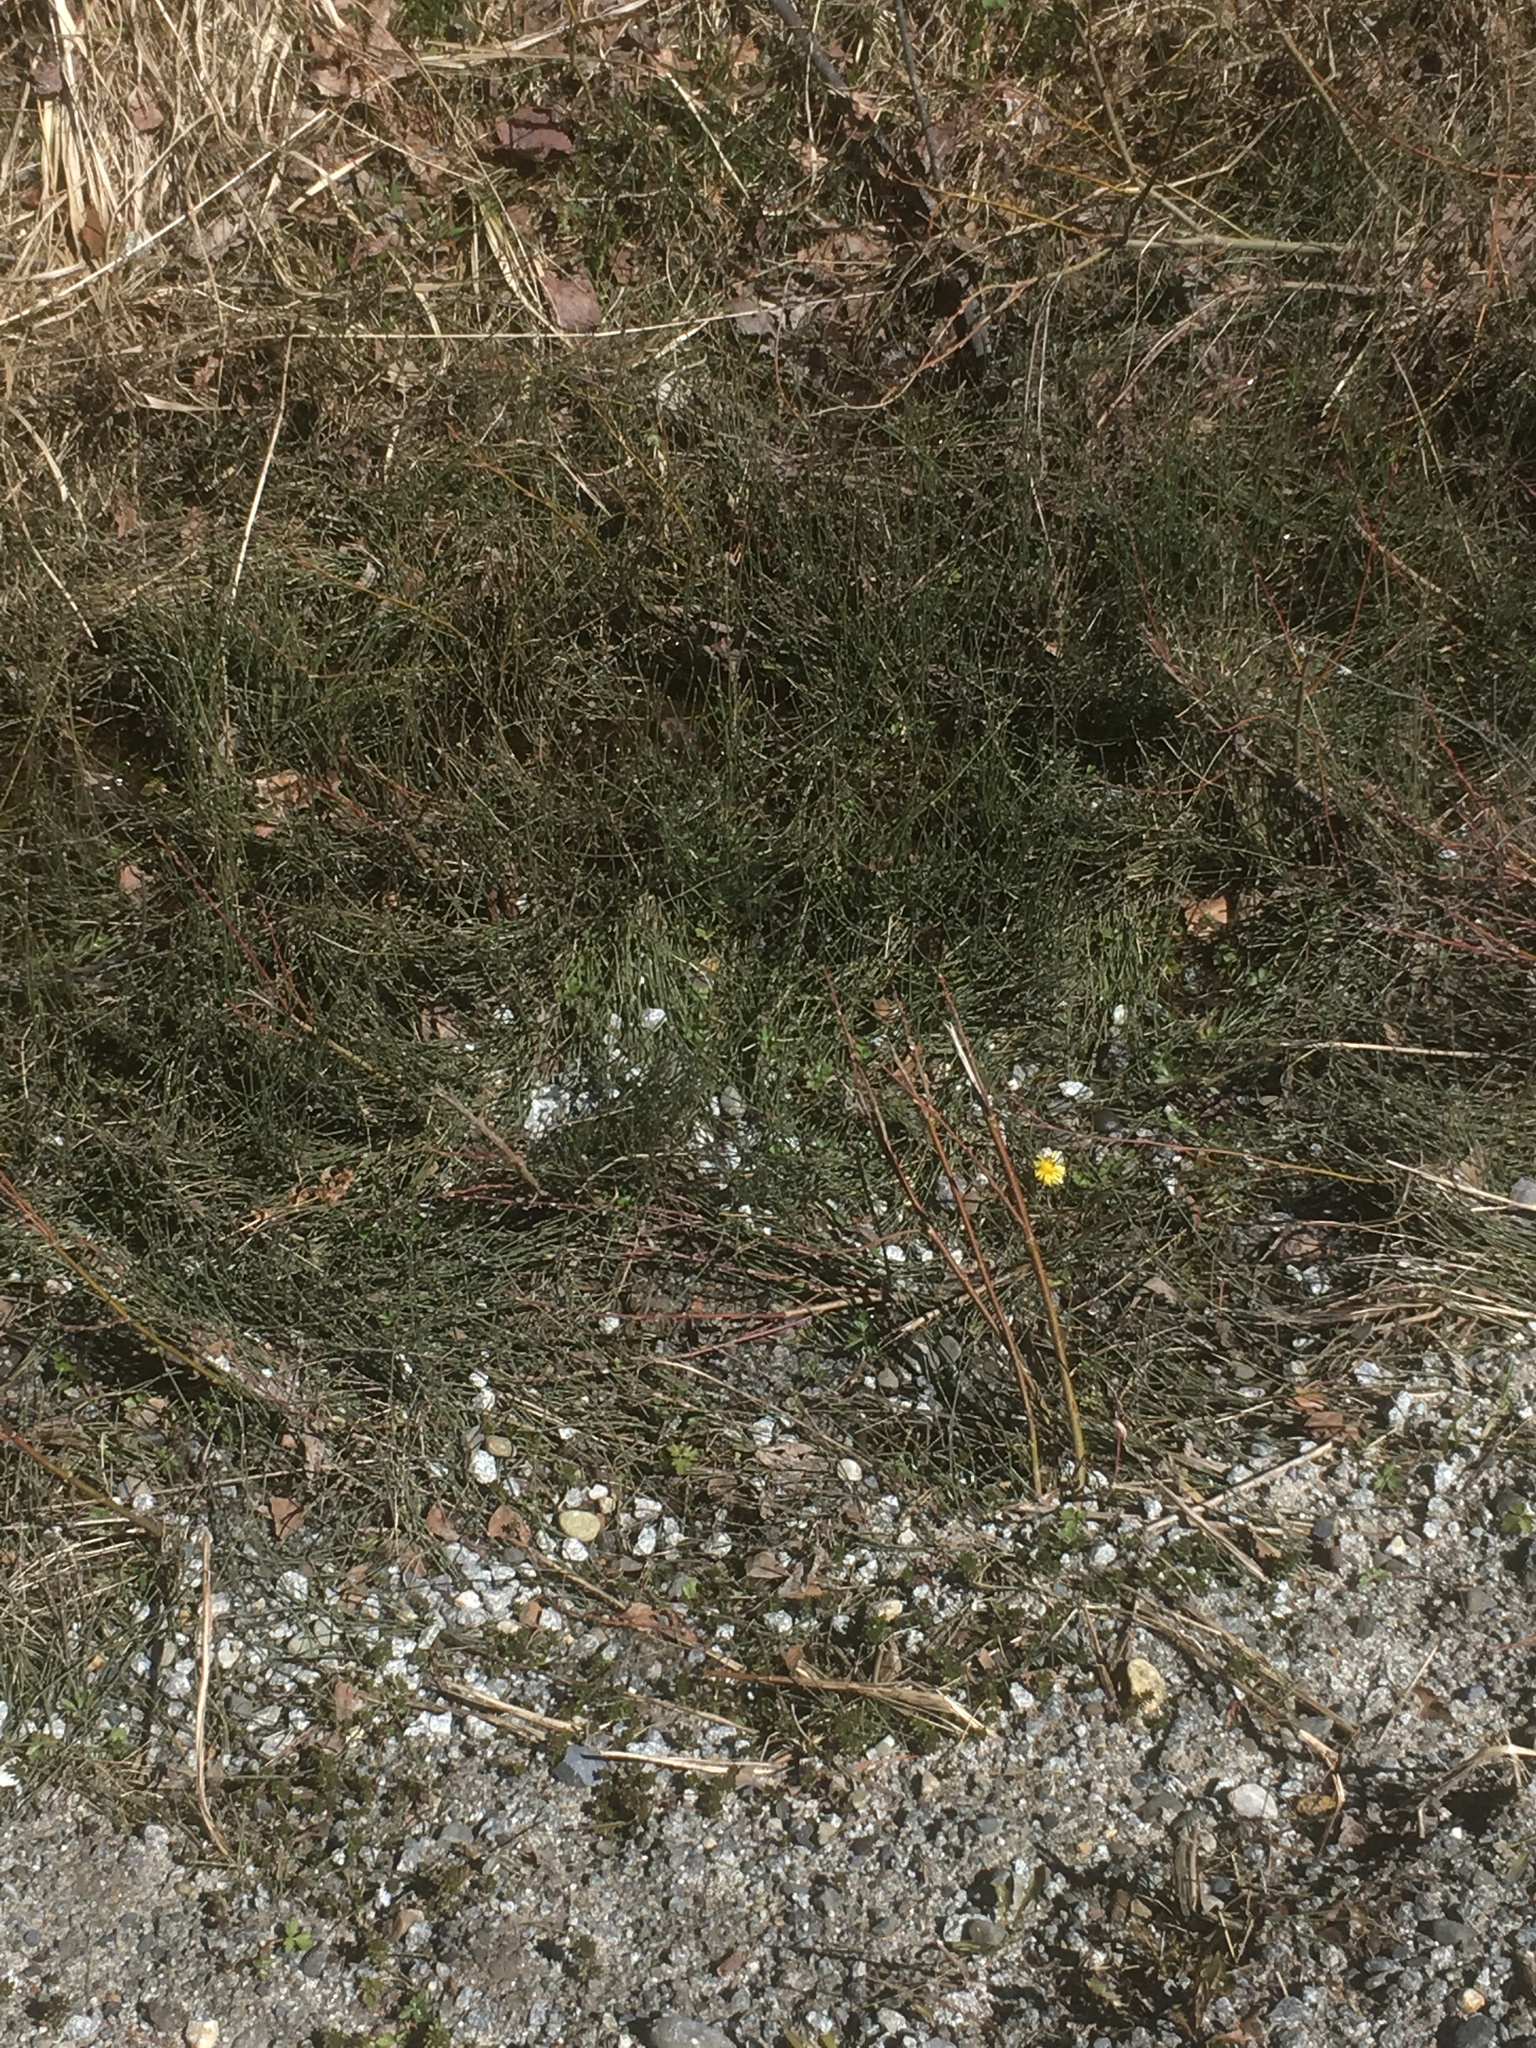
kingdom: Plantae
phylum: Tracheophyta
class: Polypodiopsida
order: Equisetales
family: Equisetaceae
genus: Equisetum
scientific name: Equisetum scirpoides
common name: Delicate horsetail
